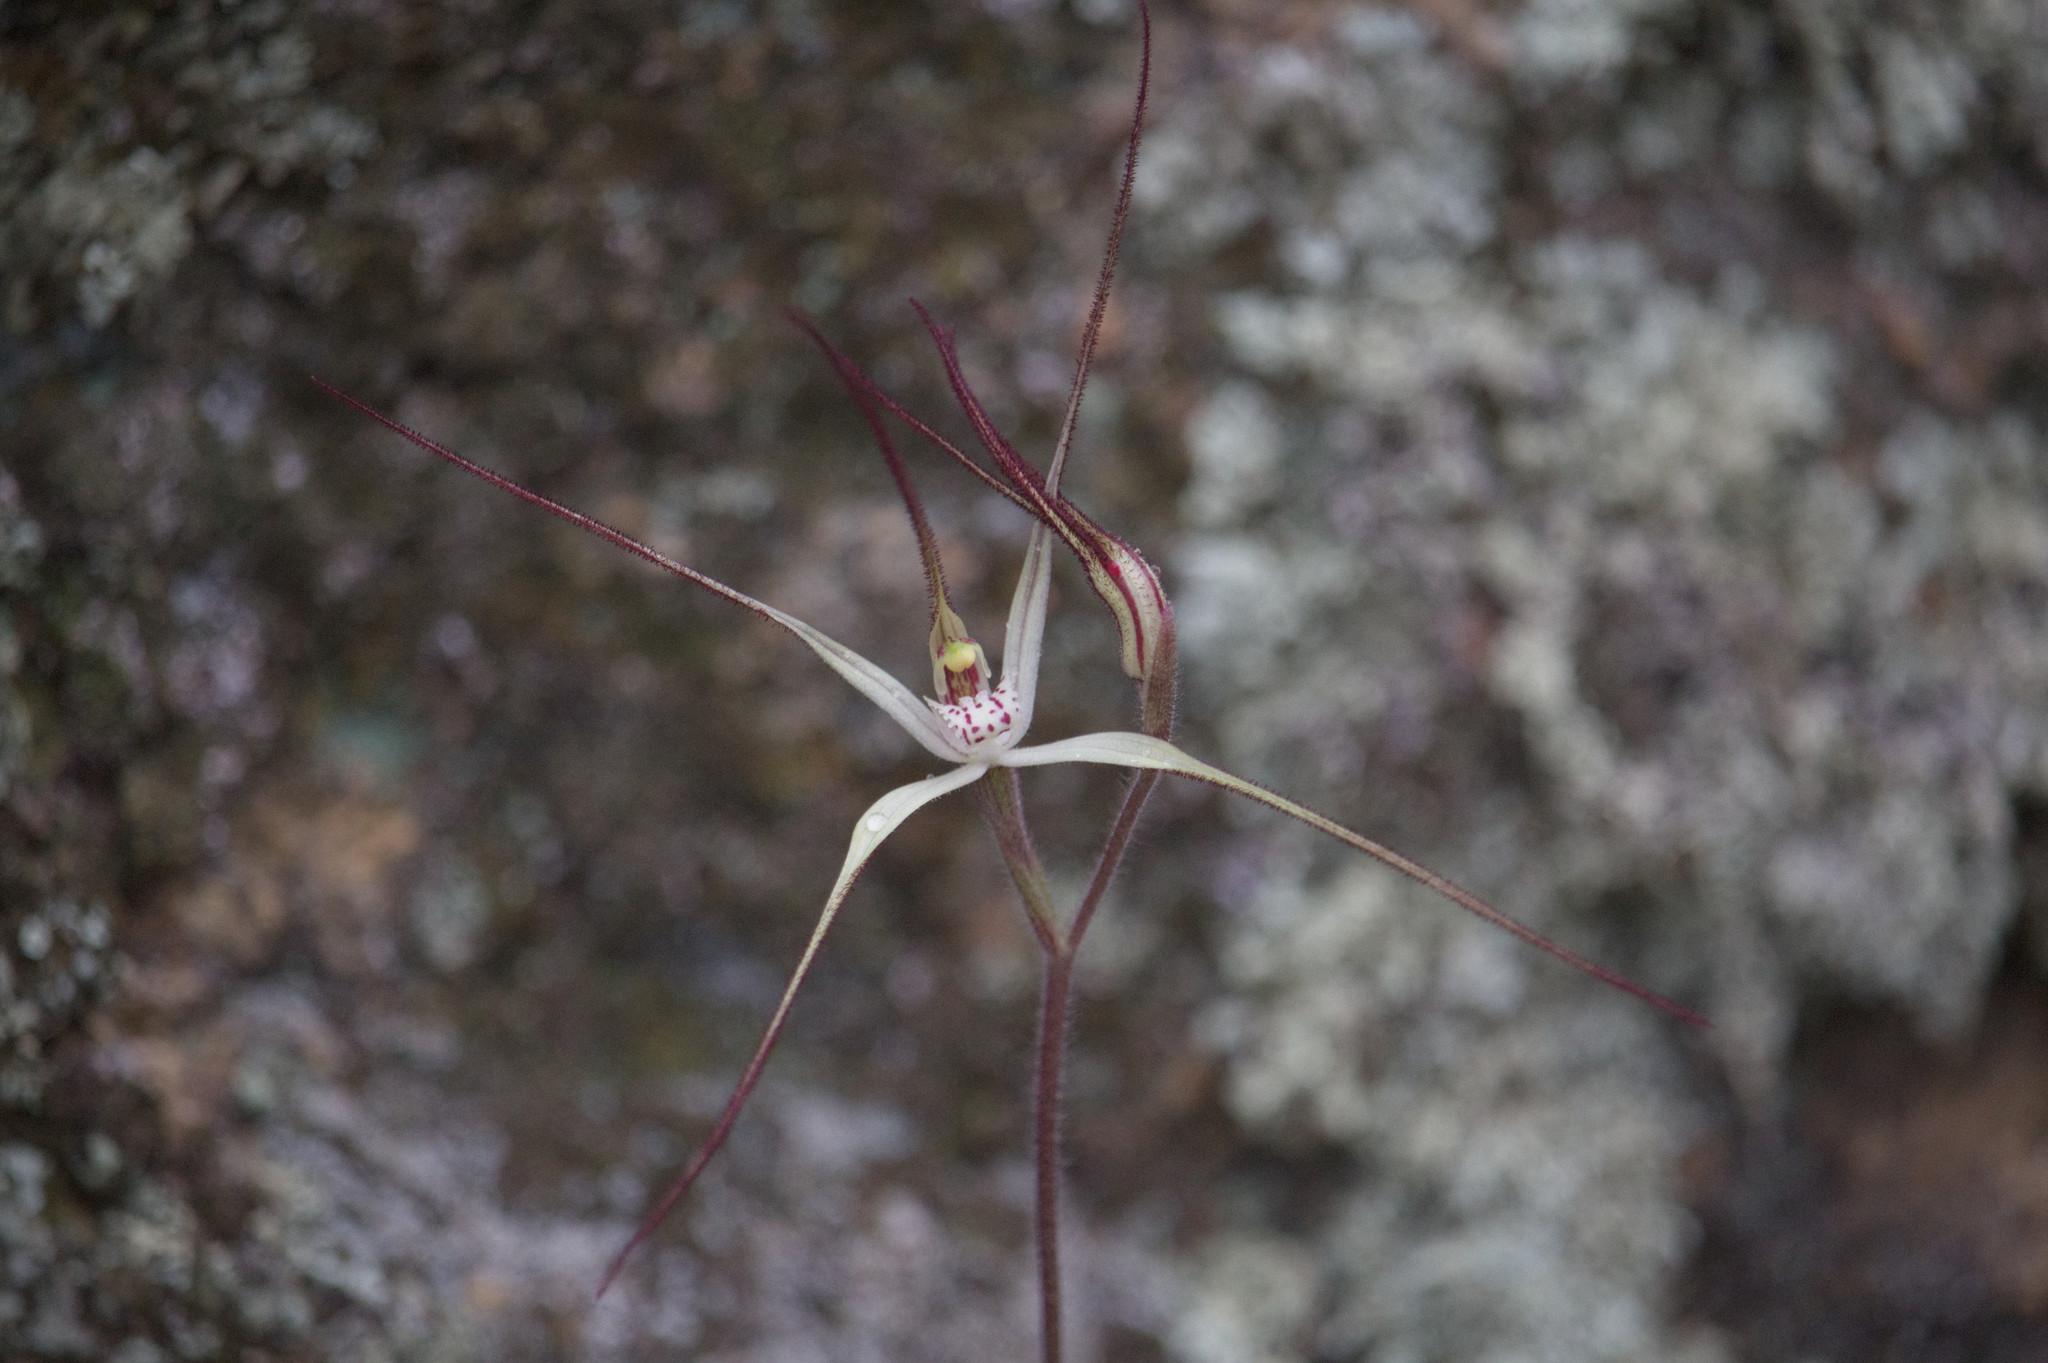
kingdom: Plantae
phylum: Tracheophyta
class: Liliopsida
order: Asparagales
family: Orchidaceae
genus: Caladenia
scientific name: Caladenia dimidia
